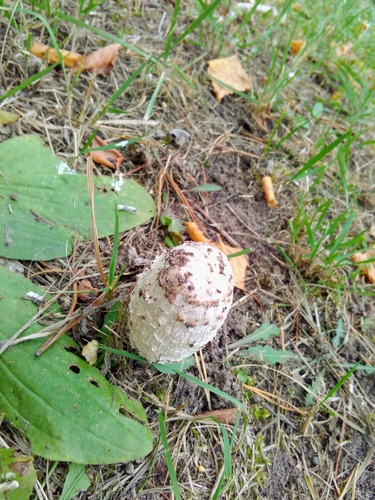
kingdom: Fungi
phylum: Basidiomycota
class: Agaricomycetes
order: Agaricales
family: Agaricaceae
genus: Coprinus
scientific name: Coprinus comatus
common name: Lawyer's wig
